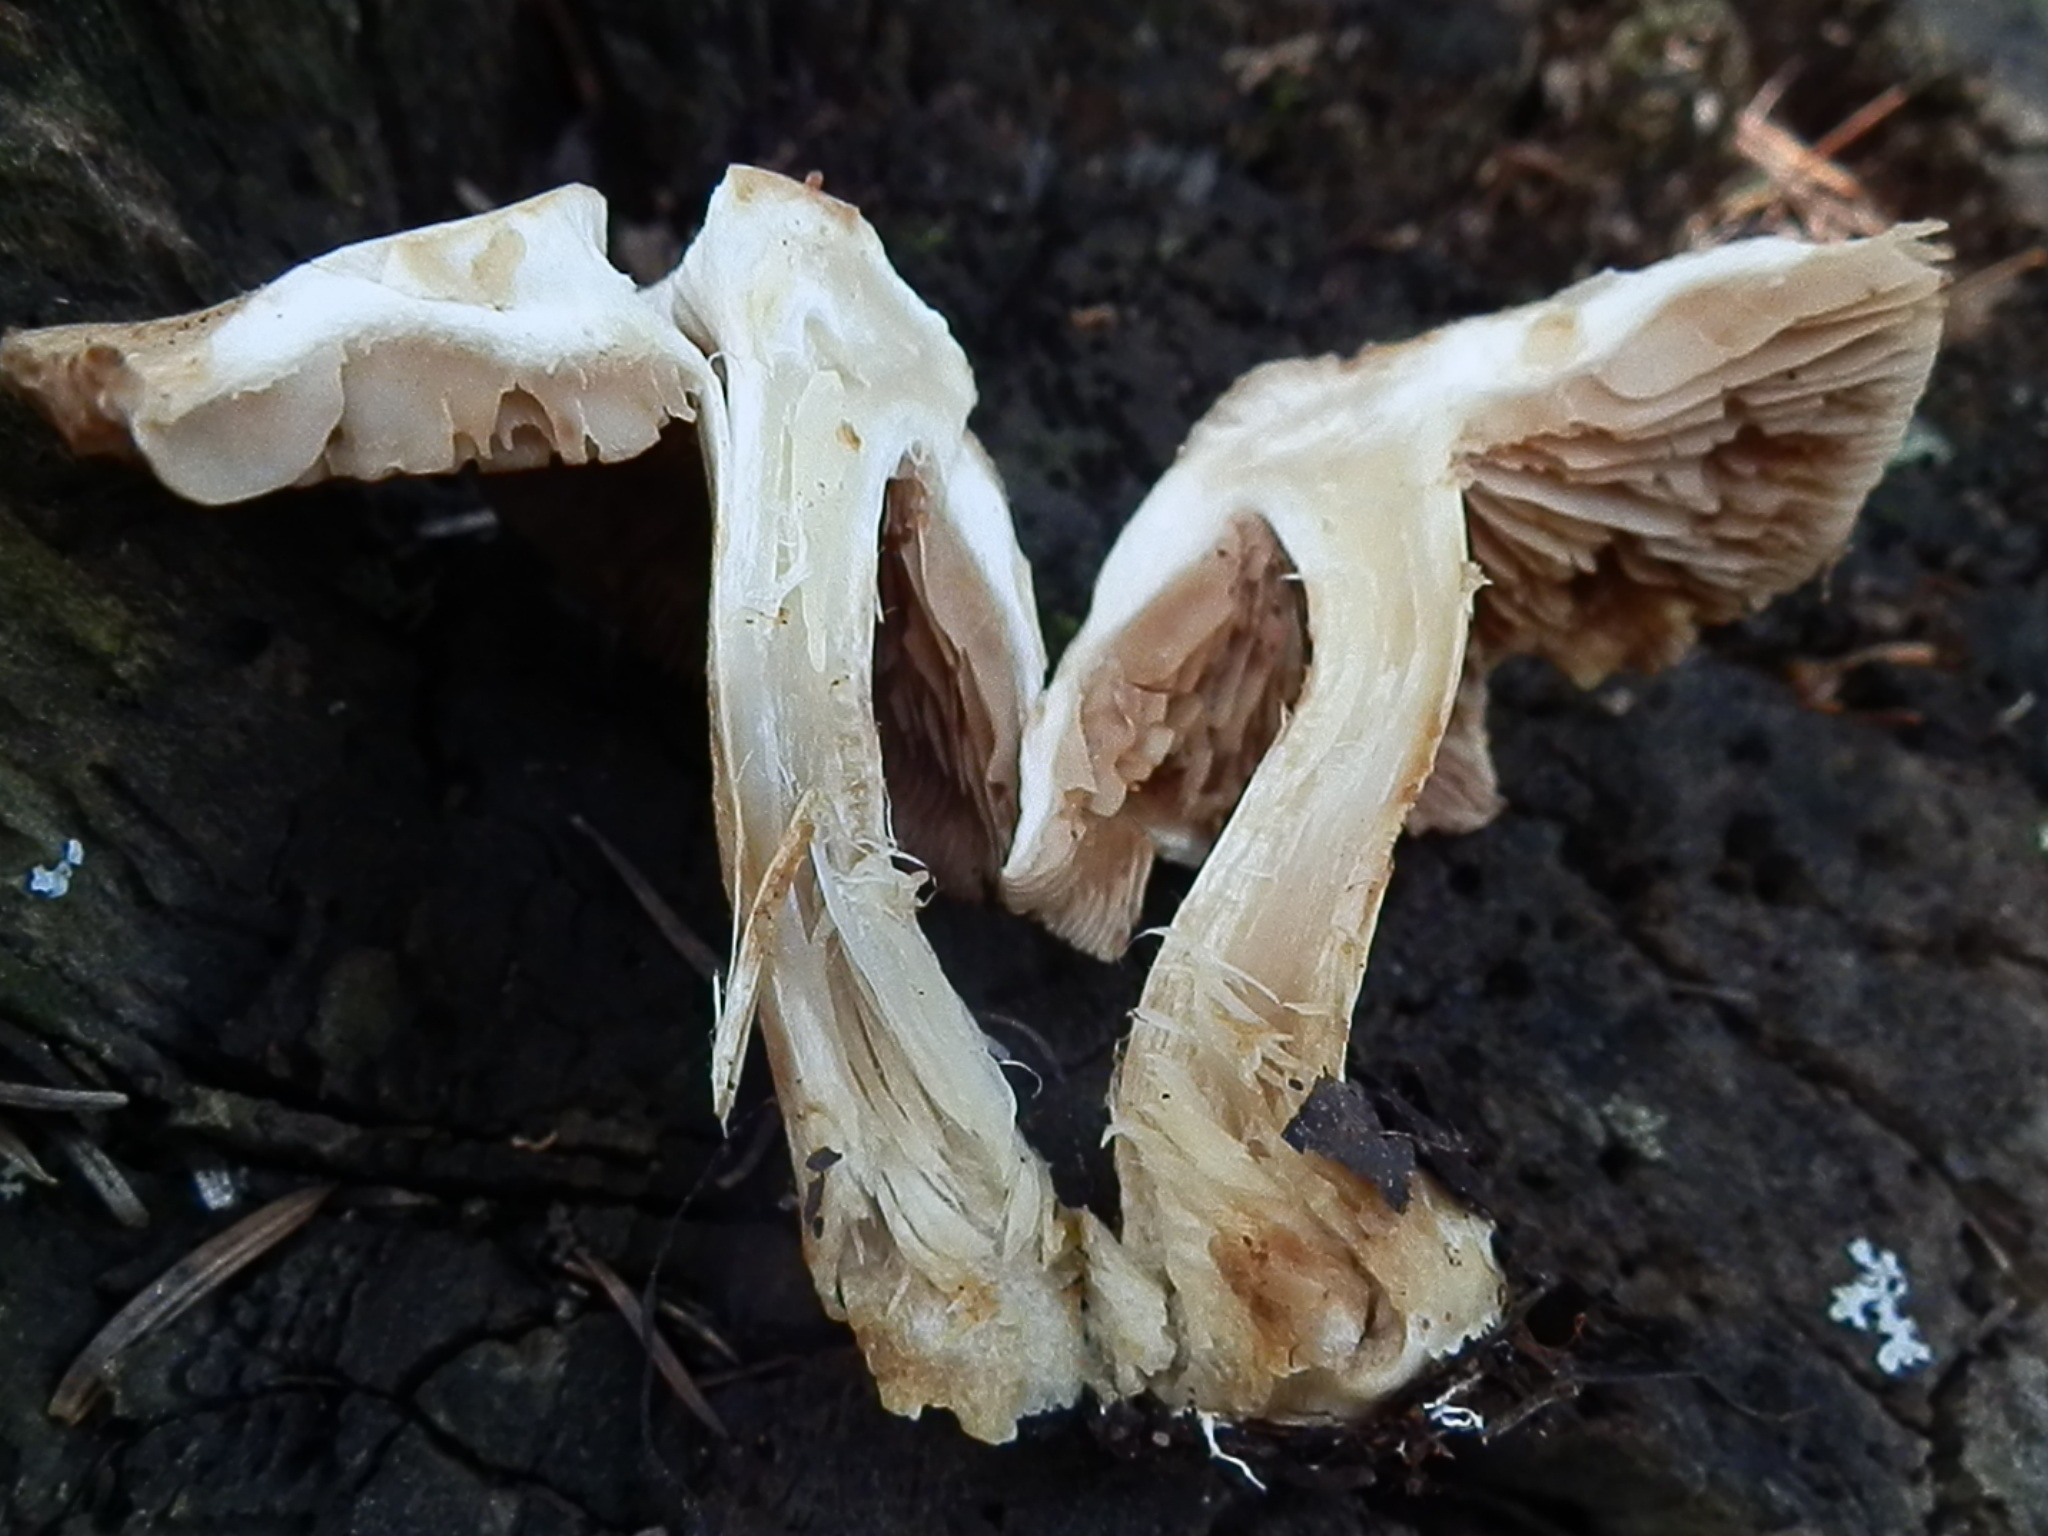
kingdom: Fungi
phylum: Basidiomycota
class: Agaricomycetes
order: Agaricales
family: Hymenogastraceae
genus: Hebeloma
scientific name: Hebeloma leucosarx
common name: Birch poisonpie
